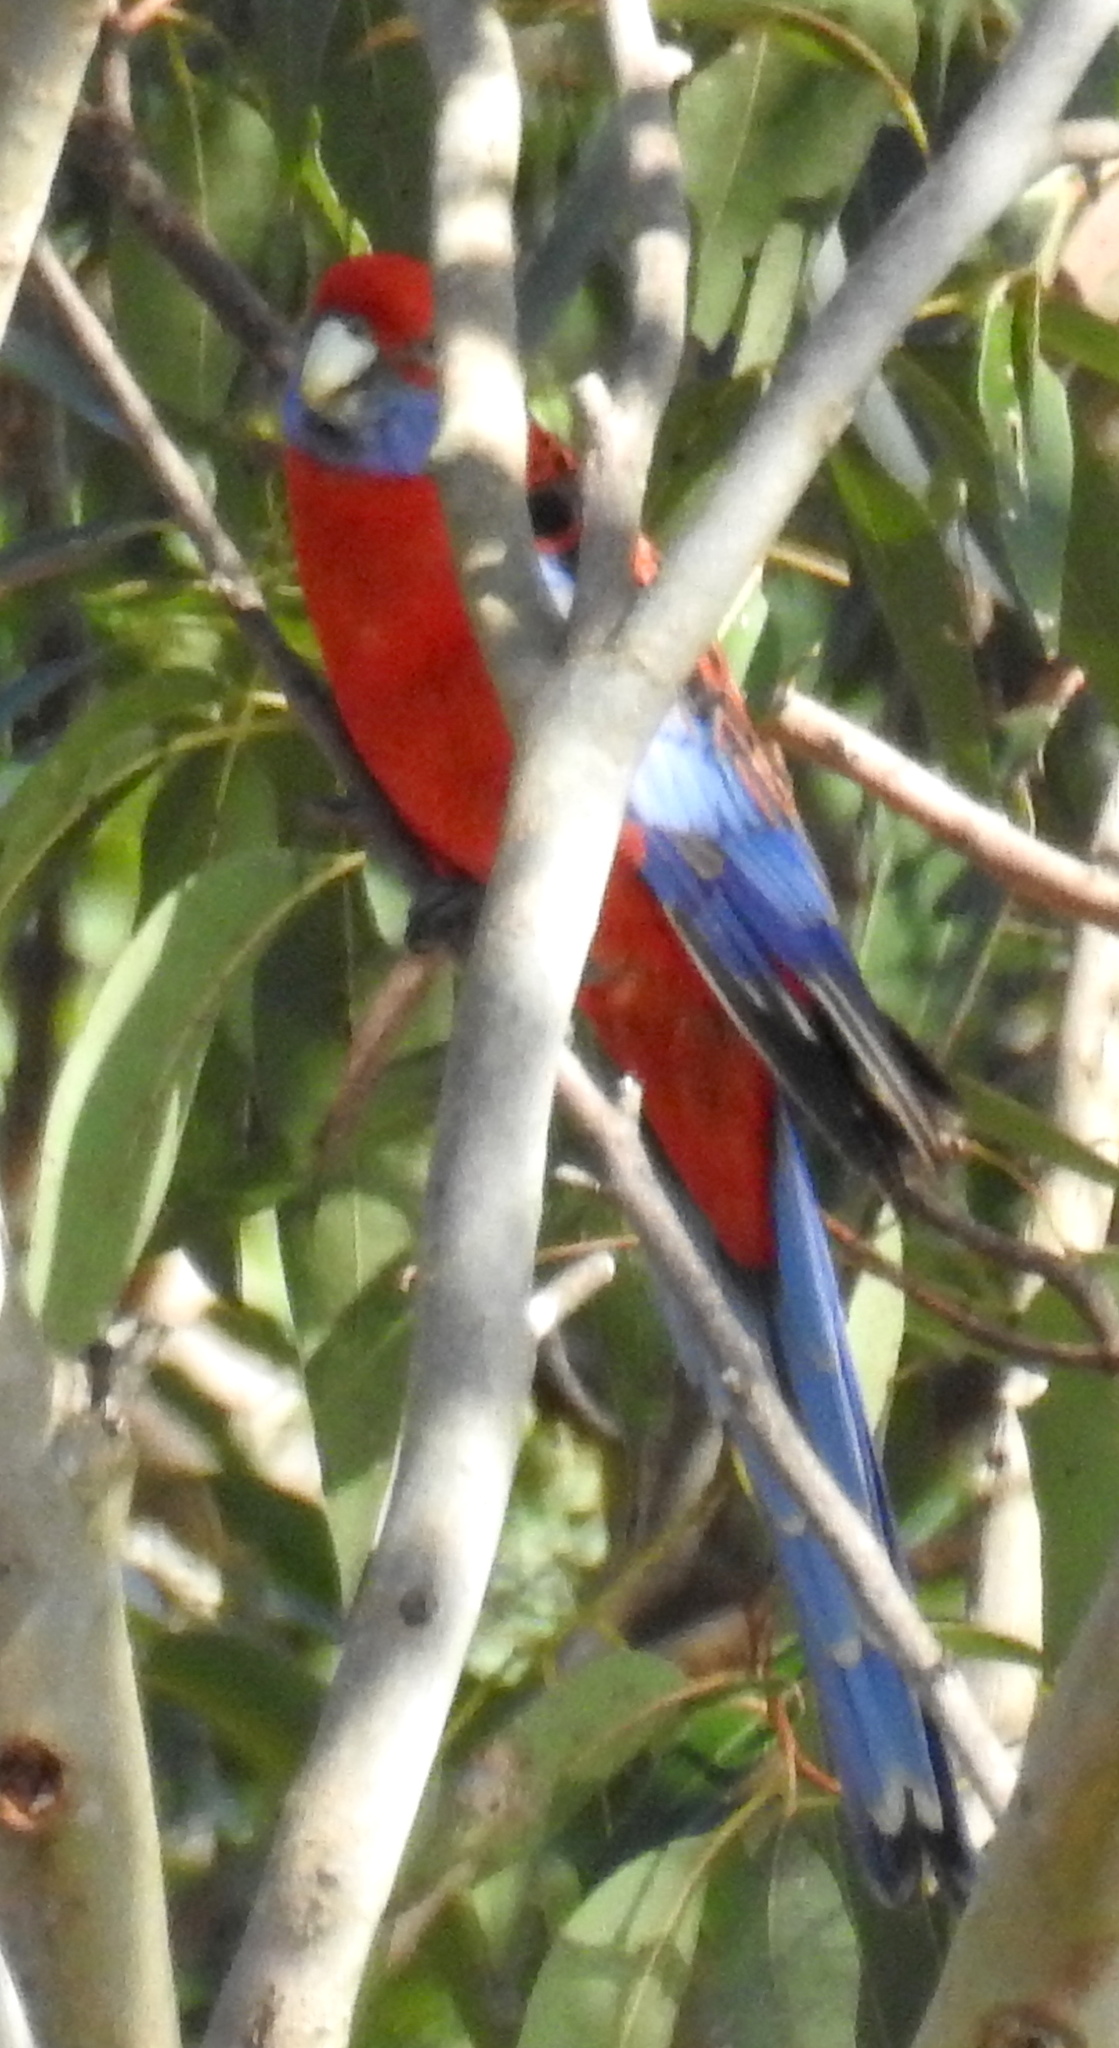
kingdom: Animalia
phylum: Chordata
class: Aves
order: Psittaciformes
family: Psittacidae
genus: Platycercus
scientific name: Platycercus elegans
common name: Crimson rosella
